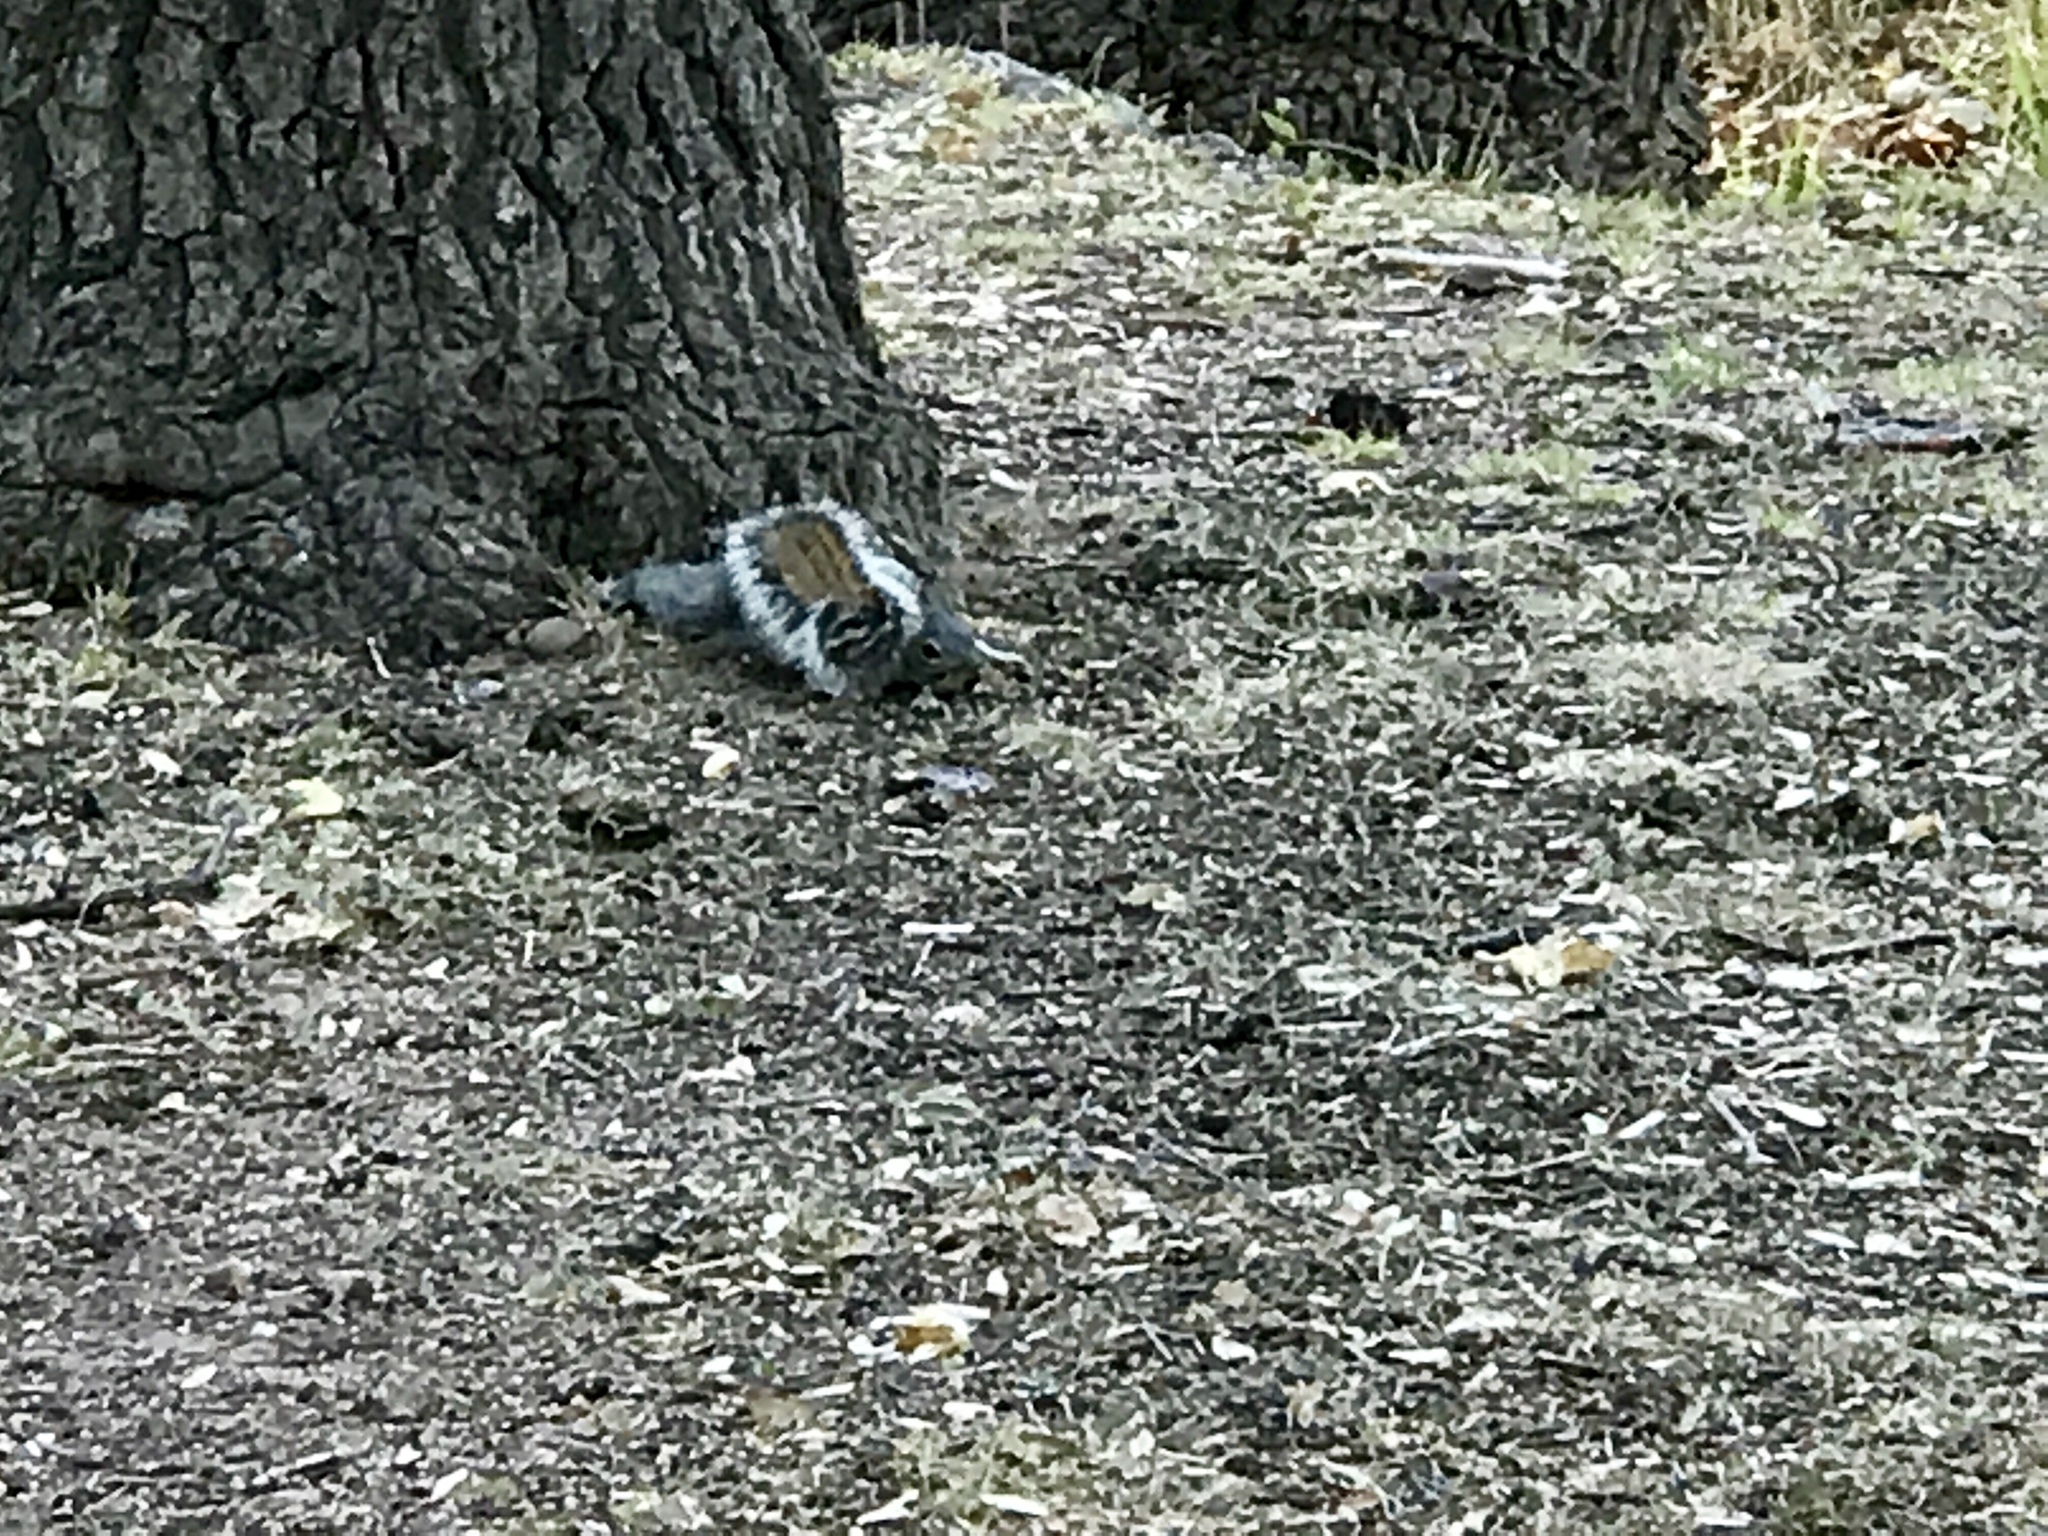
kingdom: Animalia
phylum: Chordata
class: Mammalia
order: Rodentia
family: Sciuridae
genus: Sciurus
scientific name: Sciurus arizonensis
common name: Arizona gray squirrel
